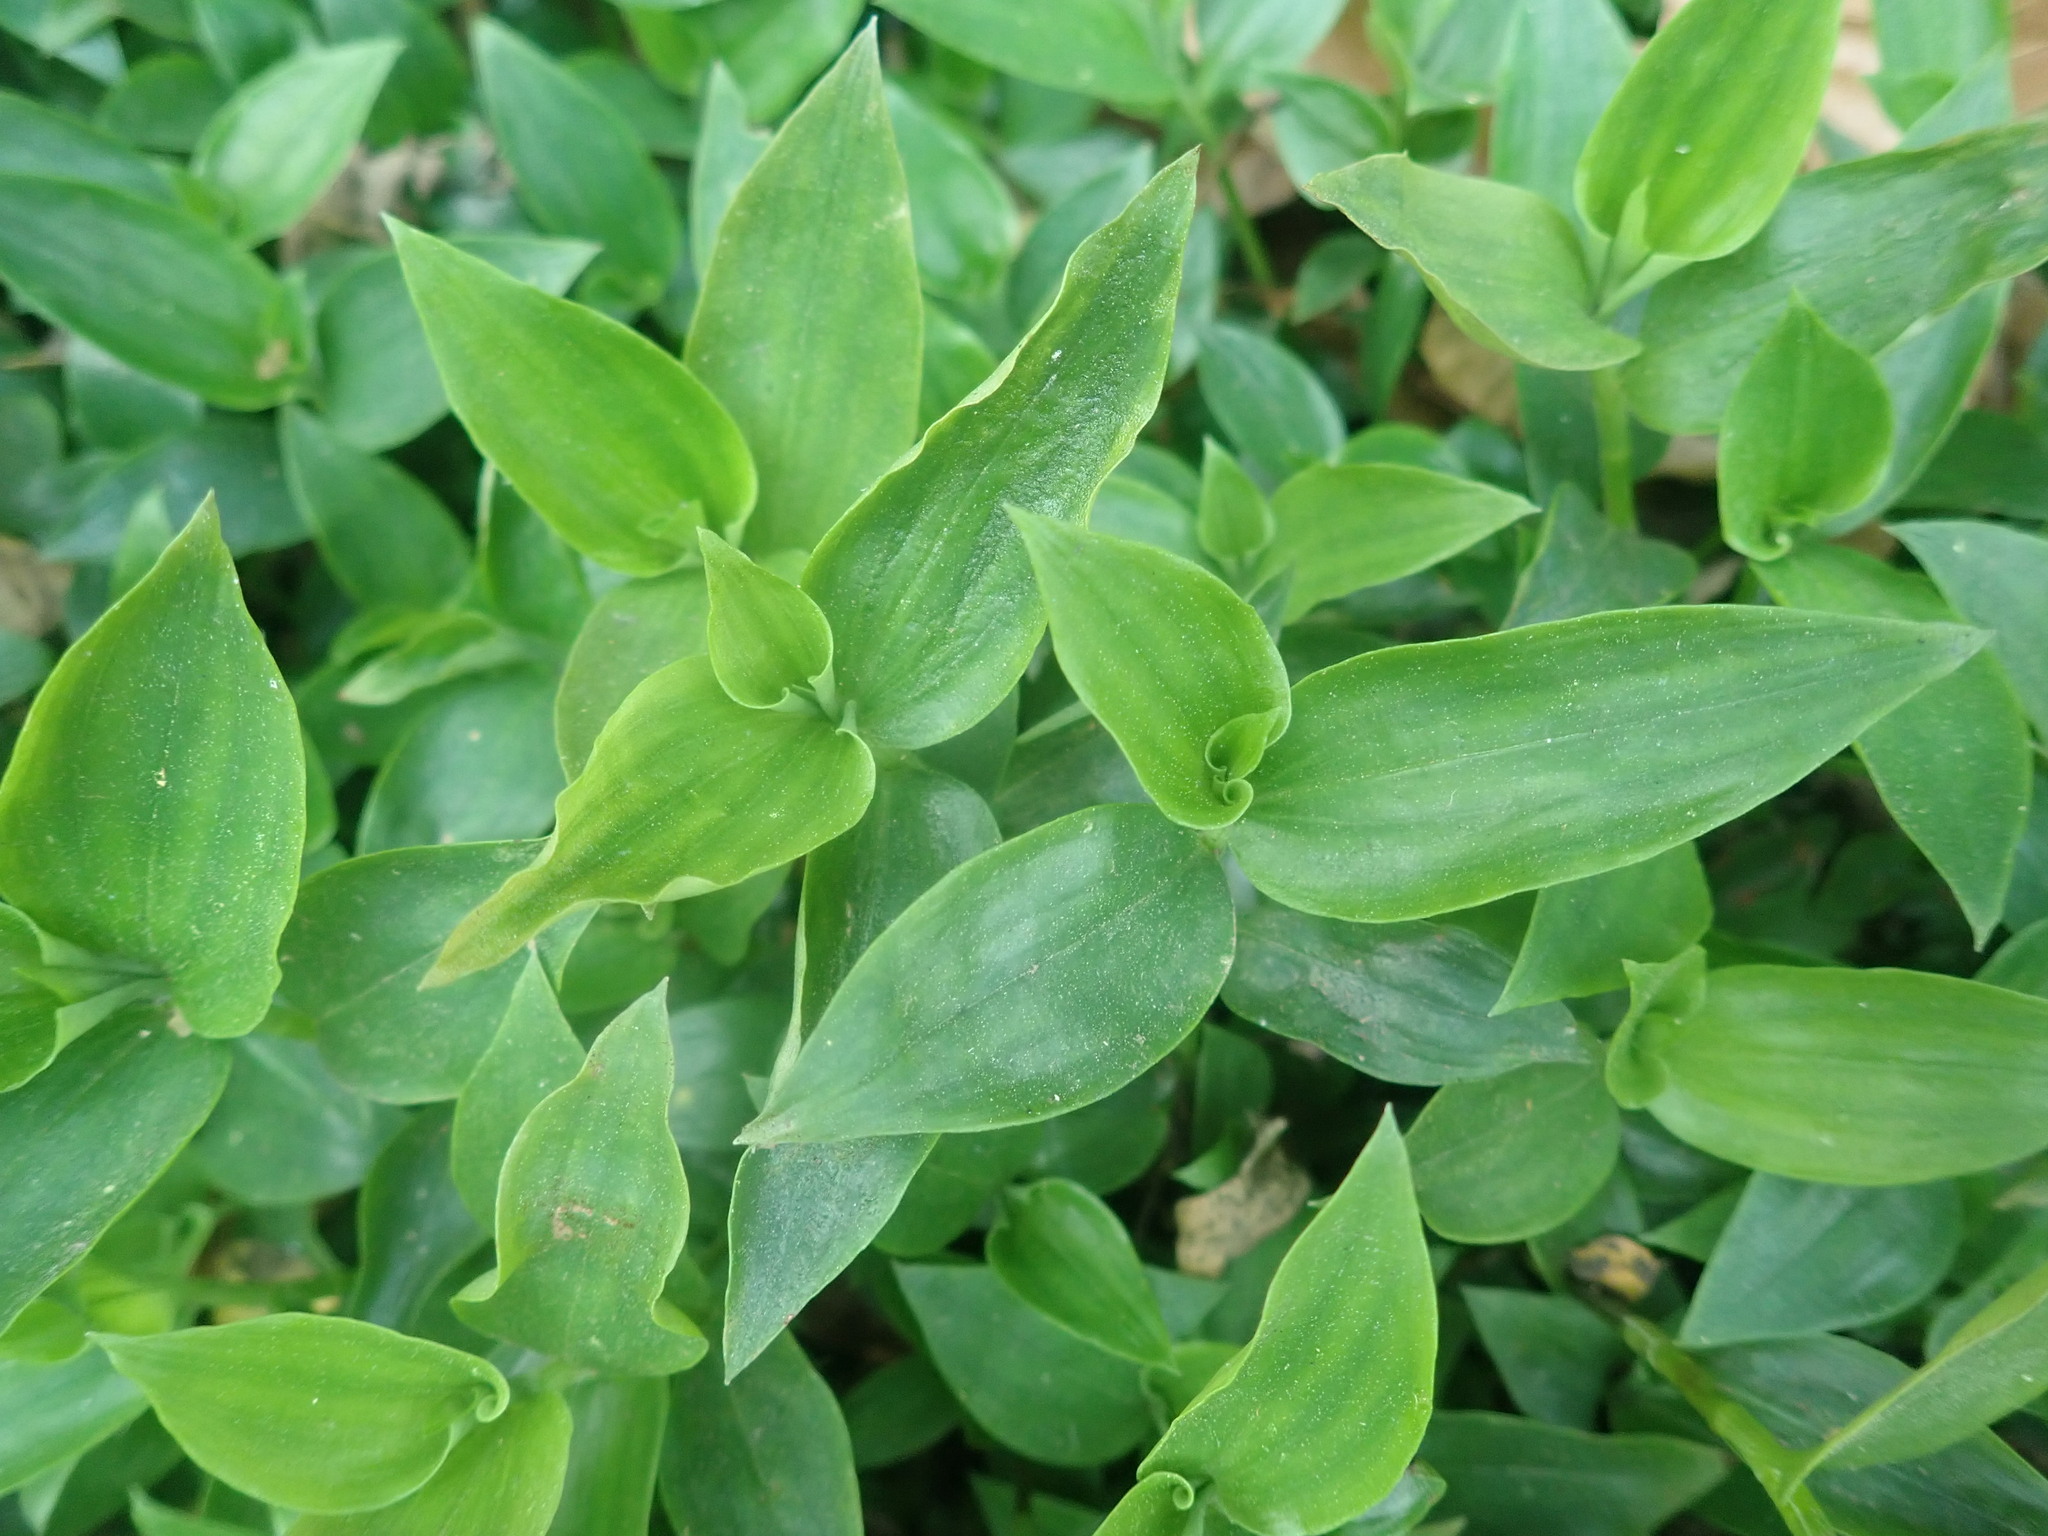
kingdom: Plantae
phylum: Tracheophyta
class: Liliopsida
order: Commelinales
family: Commelinaceae
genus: Tradescantia
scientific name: Tradescantia fluminensis
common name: Wandering-jew
